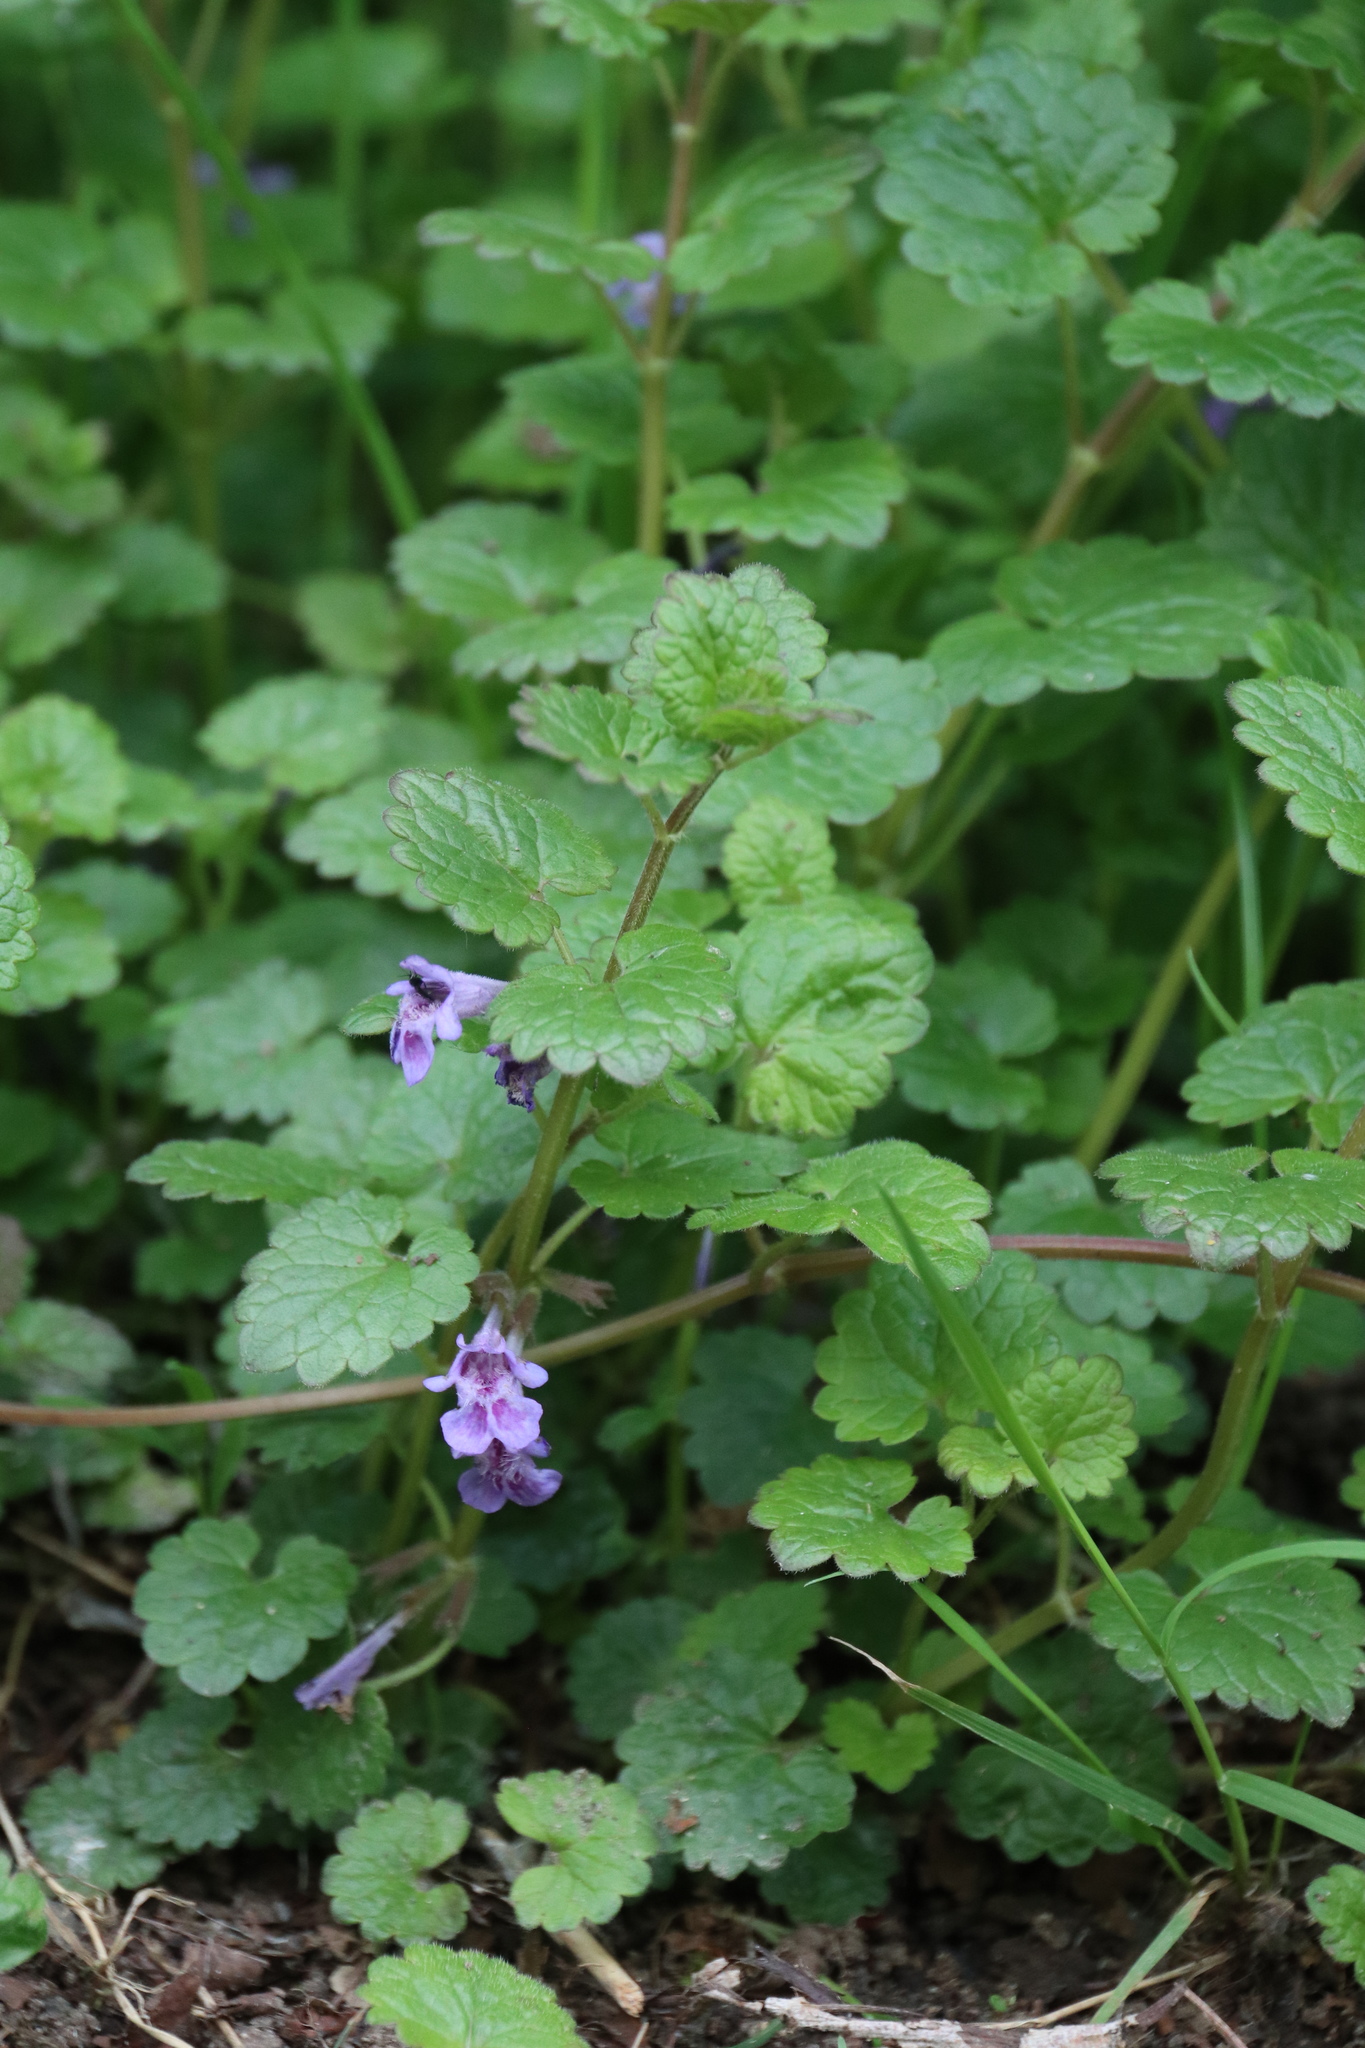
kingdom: Plantae
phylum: Tracheophyta
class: Magnoliopsida
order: Lamiales
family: Lamiaceae
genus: Glechoma
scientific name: Glechoma hederacea
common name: Ground ivy
